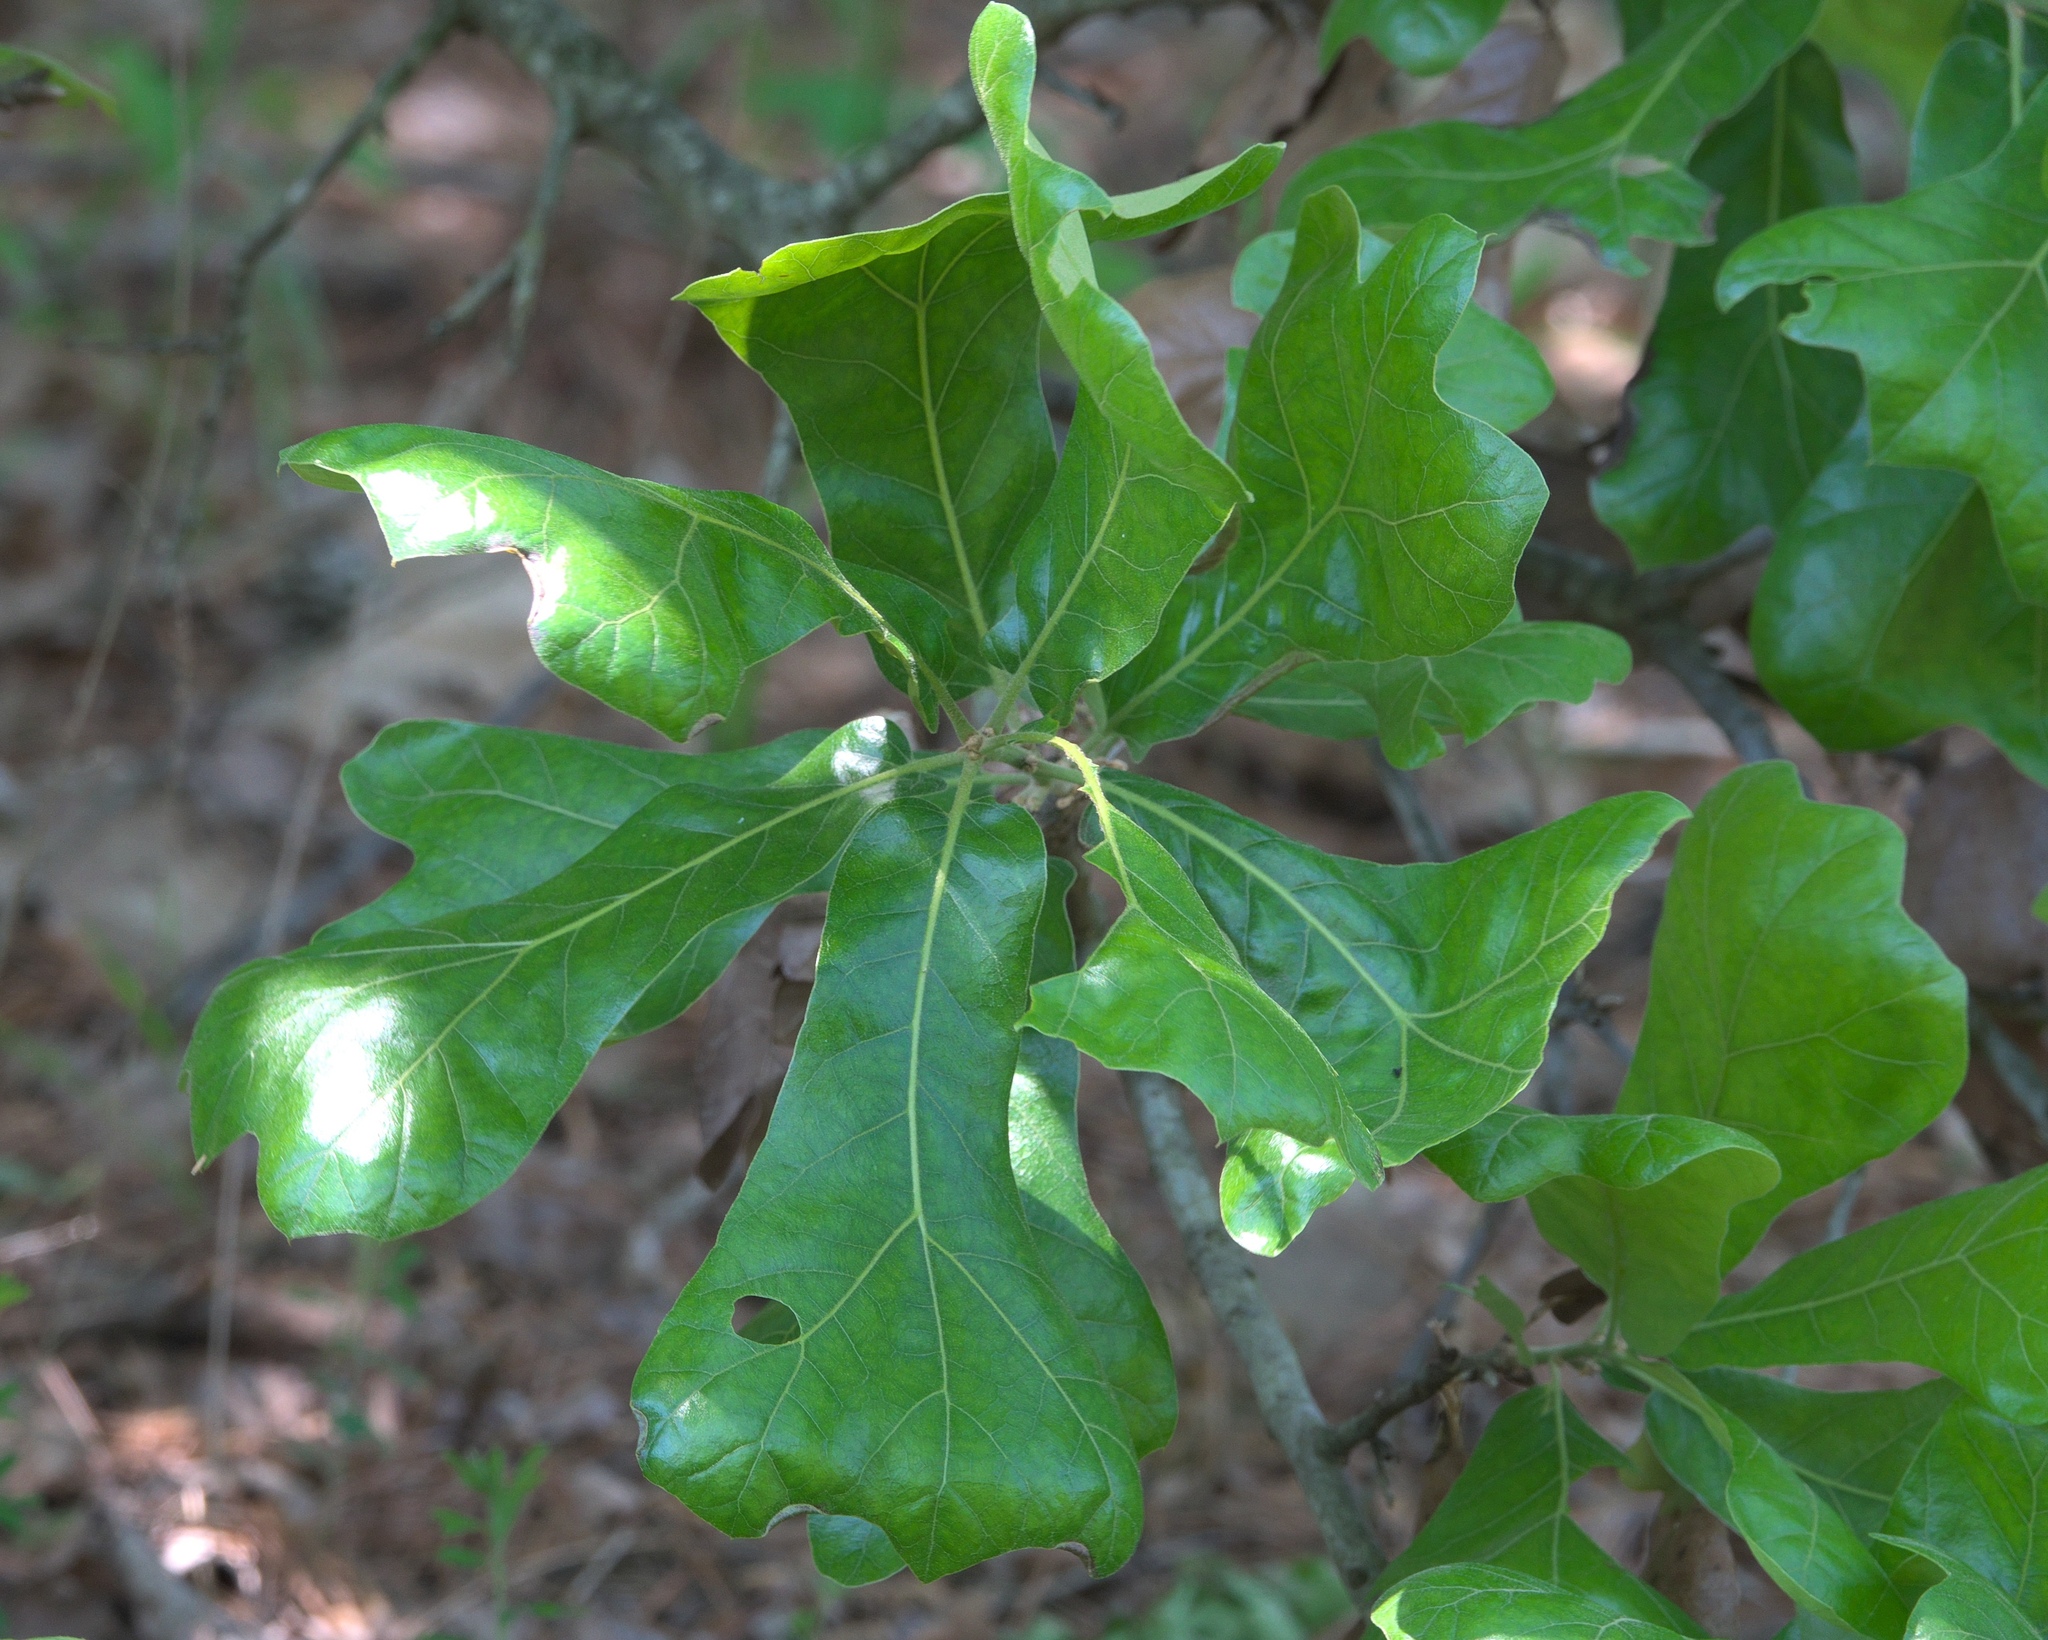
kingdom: Plantae
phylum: Tracheophyta
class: Magnoliopsida
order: Fagales
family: Fagaceae
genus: Quercus
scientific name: Quercus marilandica
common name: Blackjack oak
